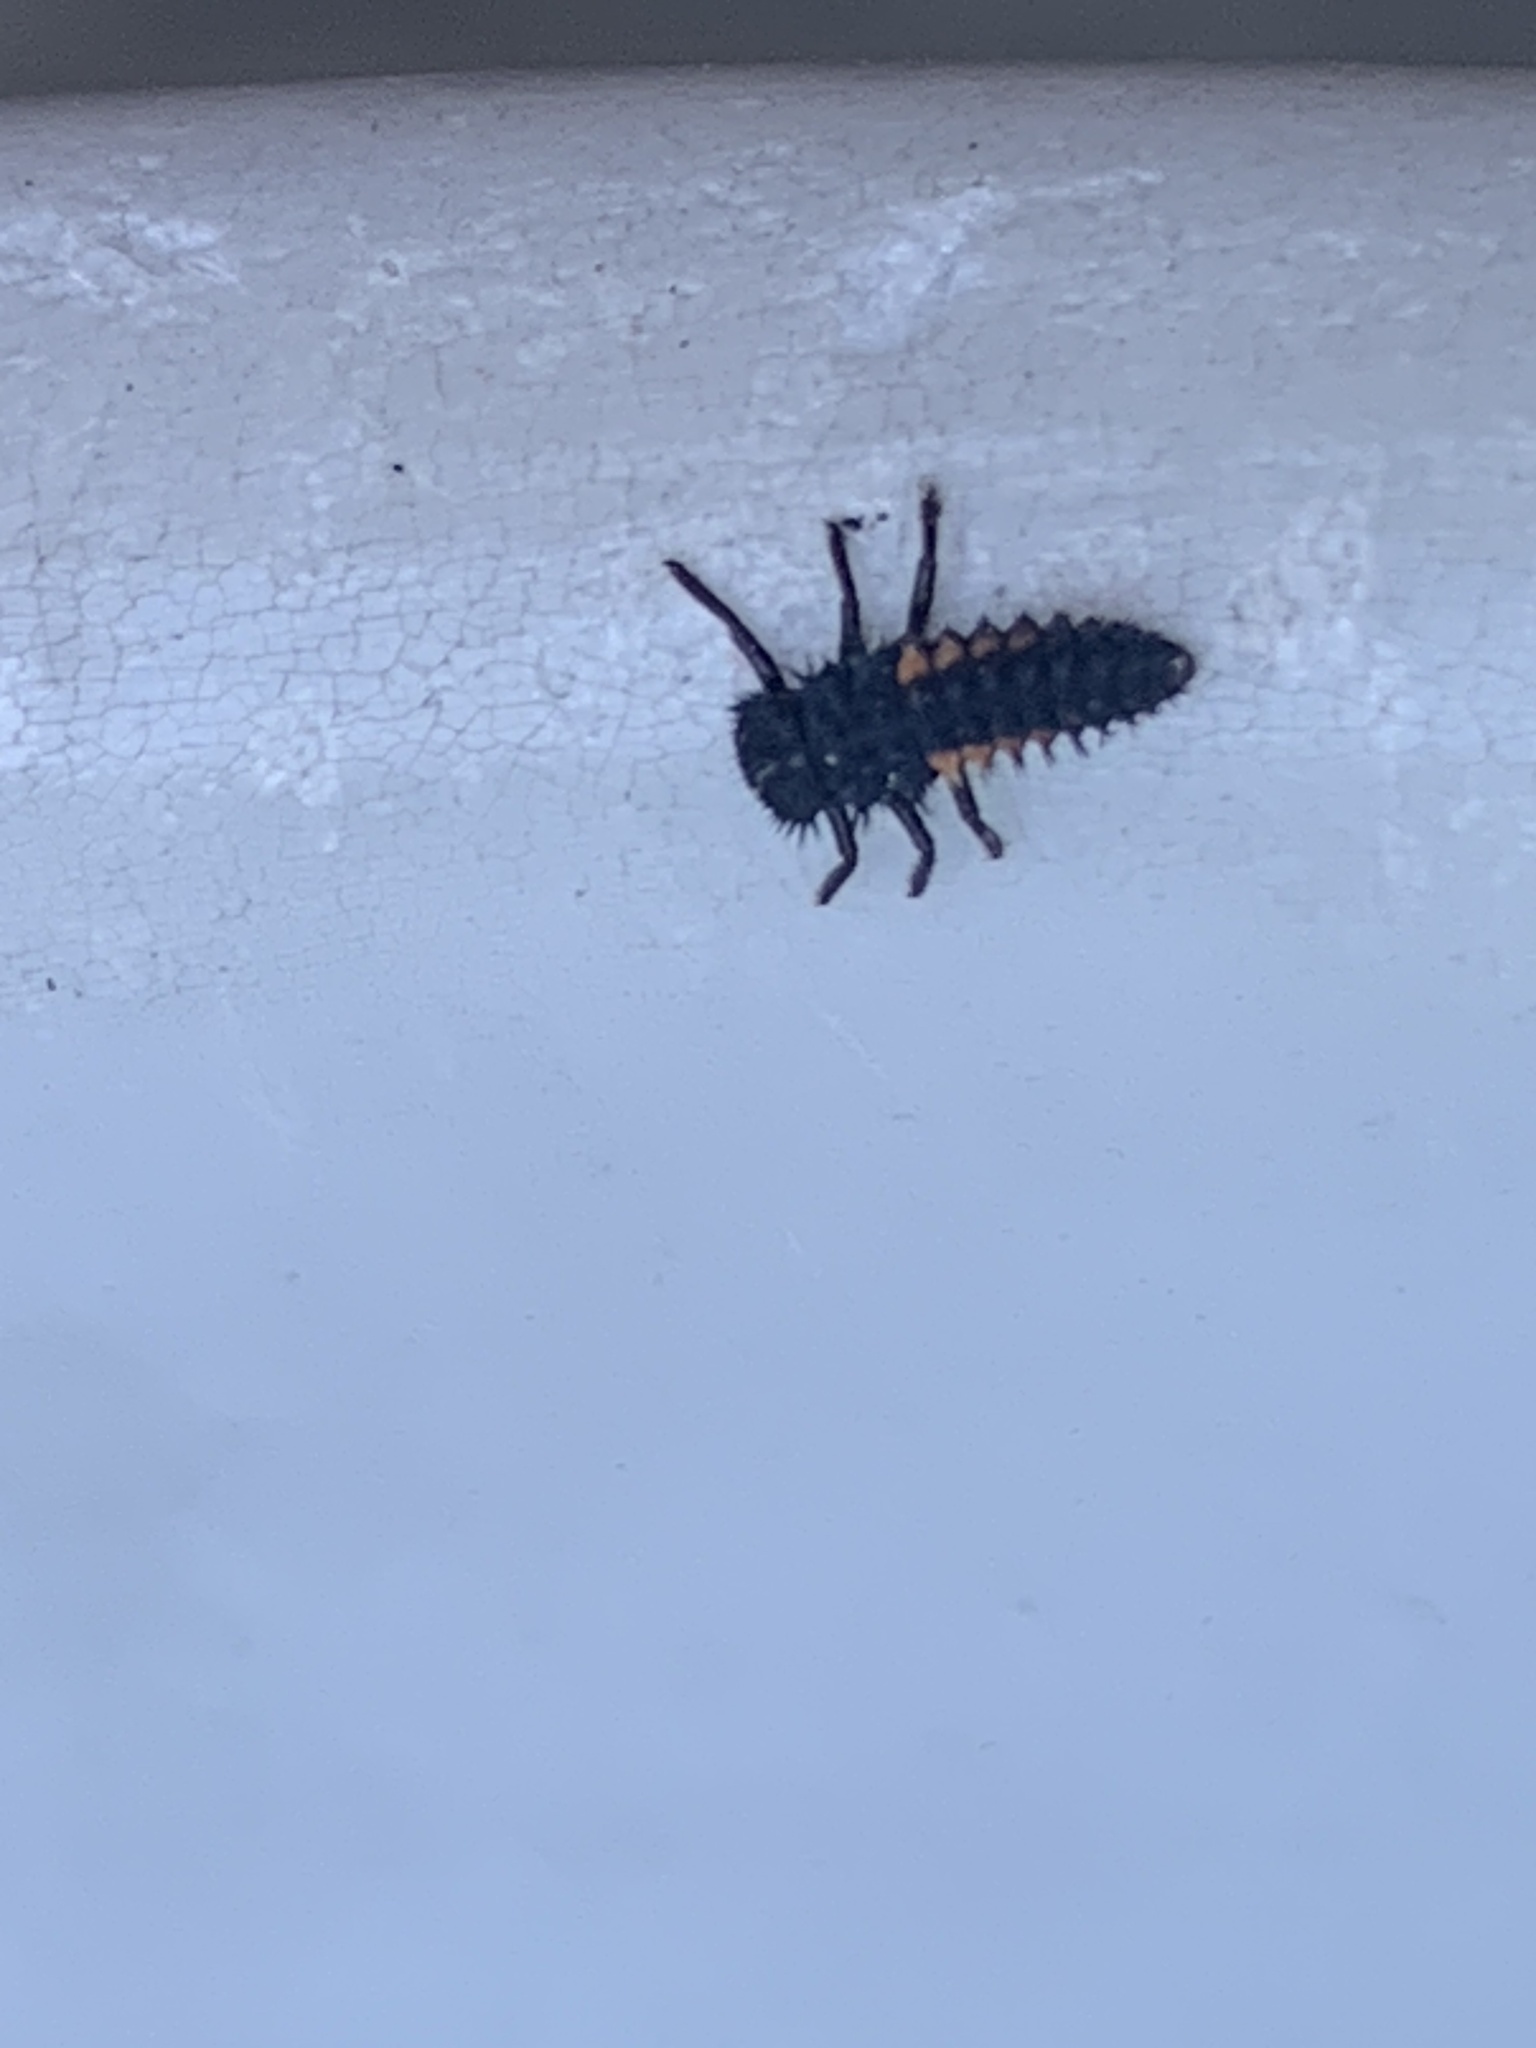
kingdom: Animalia
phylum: Arthropoda
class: Insecta
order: Coleoptera
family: Coccinellidae
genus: Harmonia
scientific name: Harmonia axyridis
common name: Harlequin ladybird
